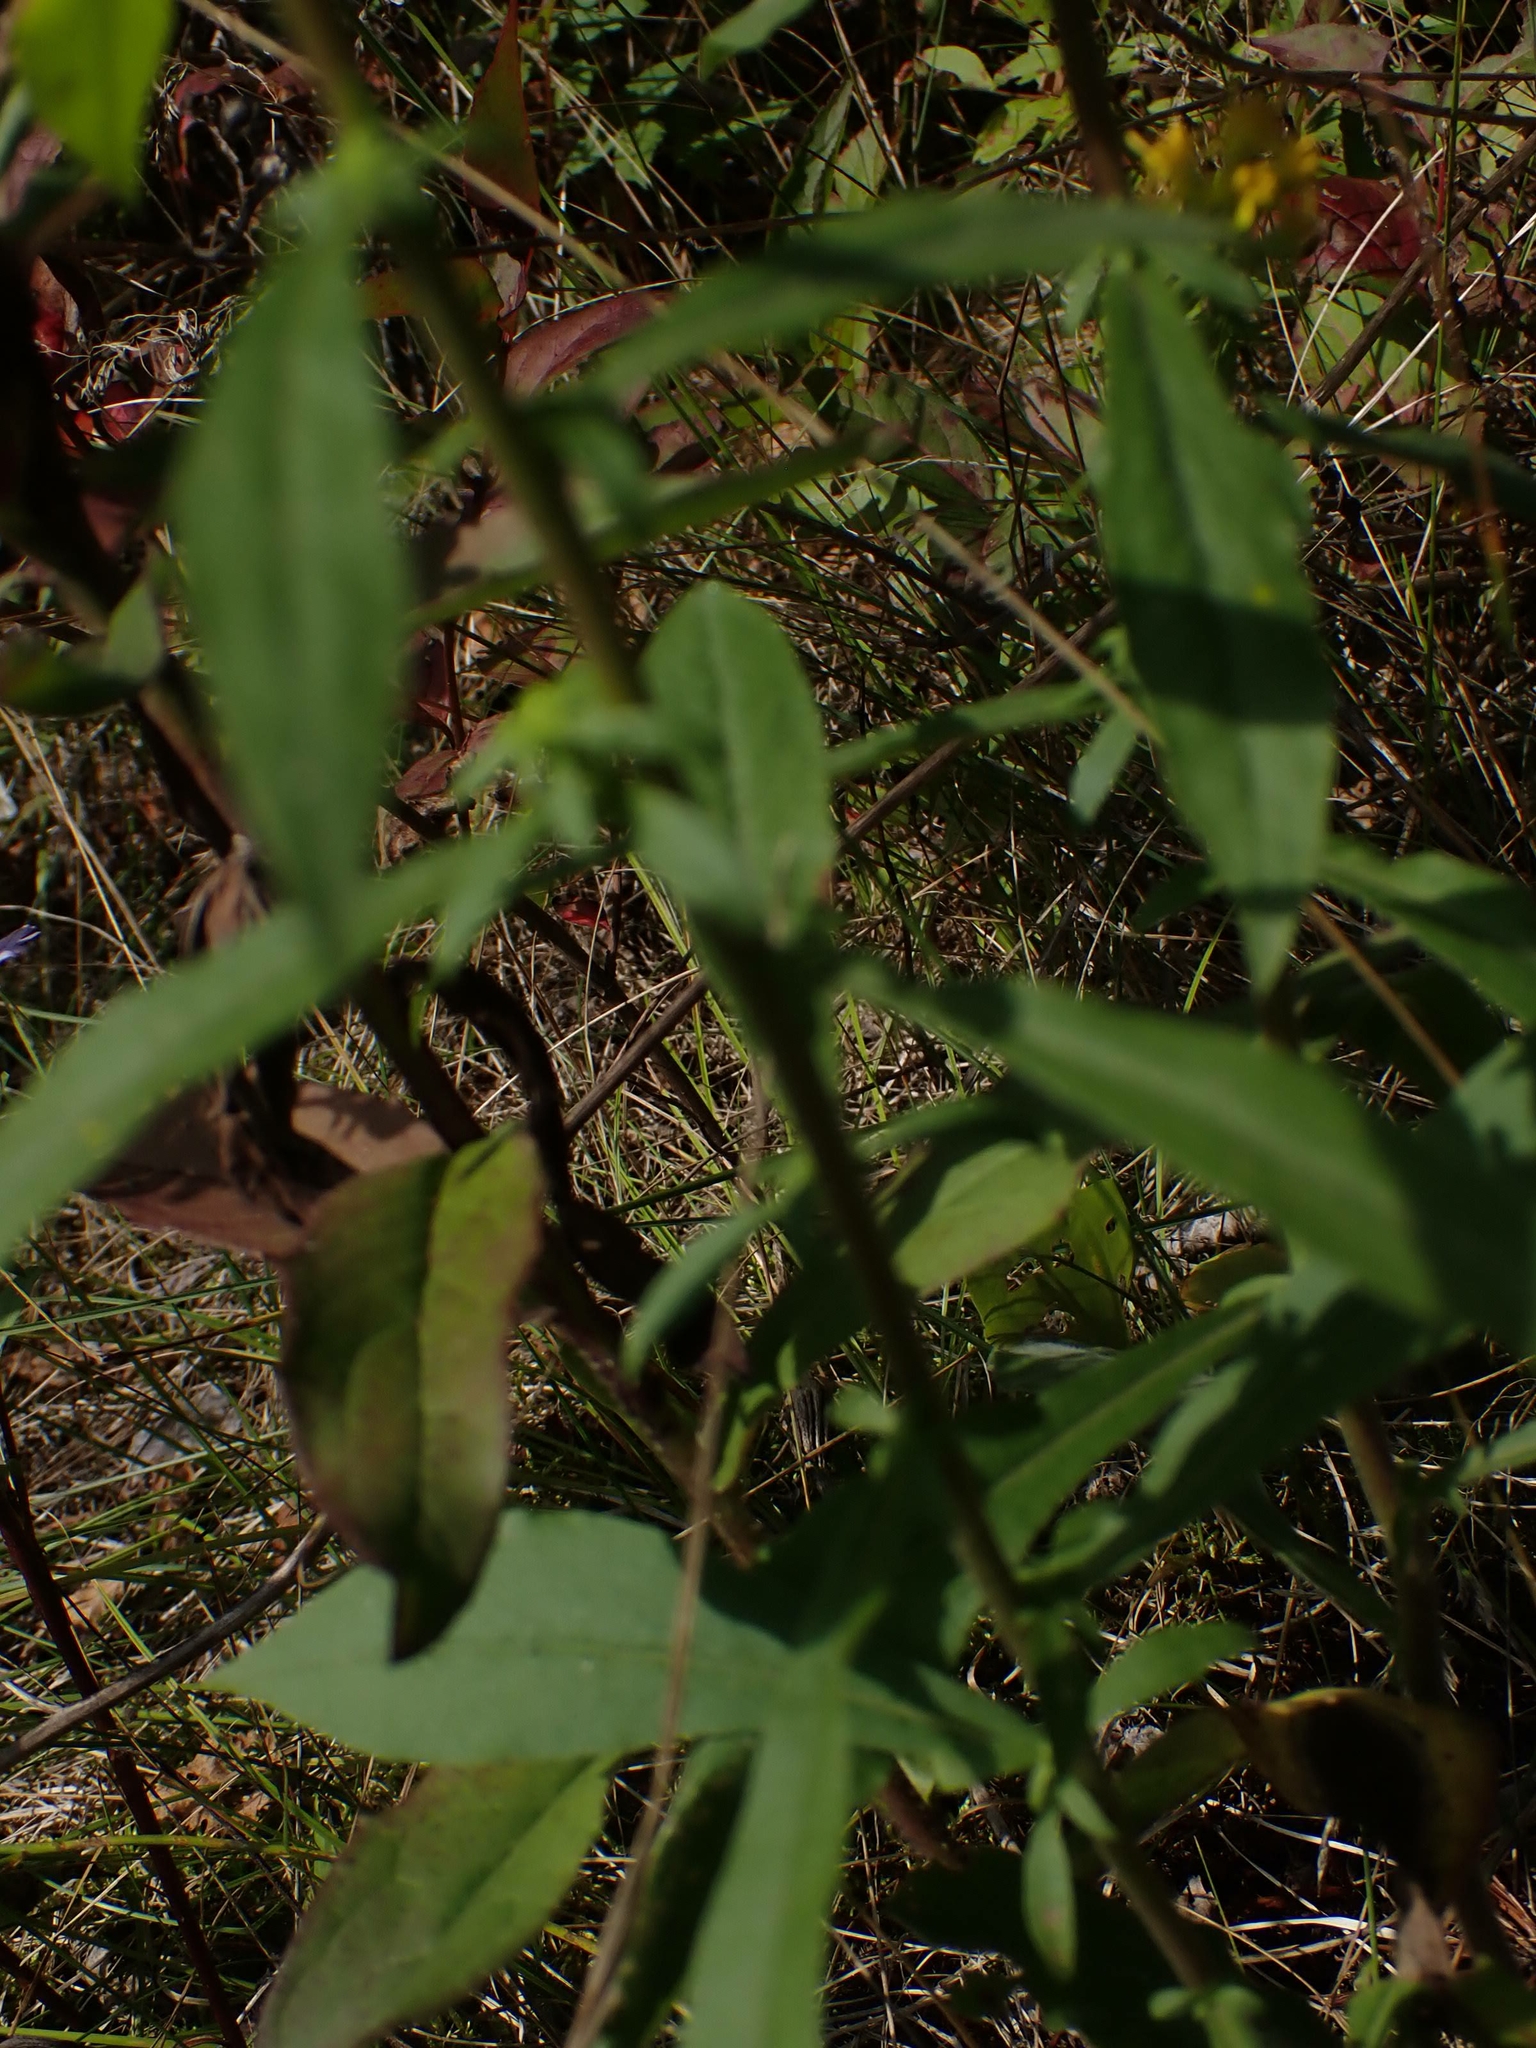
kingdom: Plantae
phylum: Tracheophyta
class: Magnoliopsida
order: Asterales
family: Asteraceae
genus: Solidago
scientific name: Solidago hispida
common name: Hairy goldenrod
